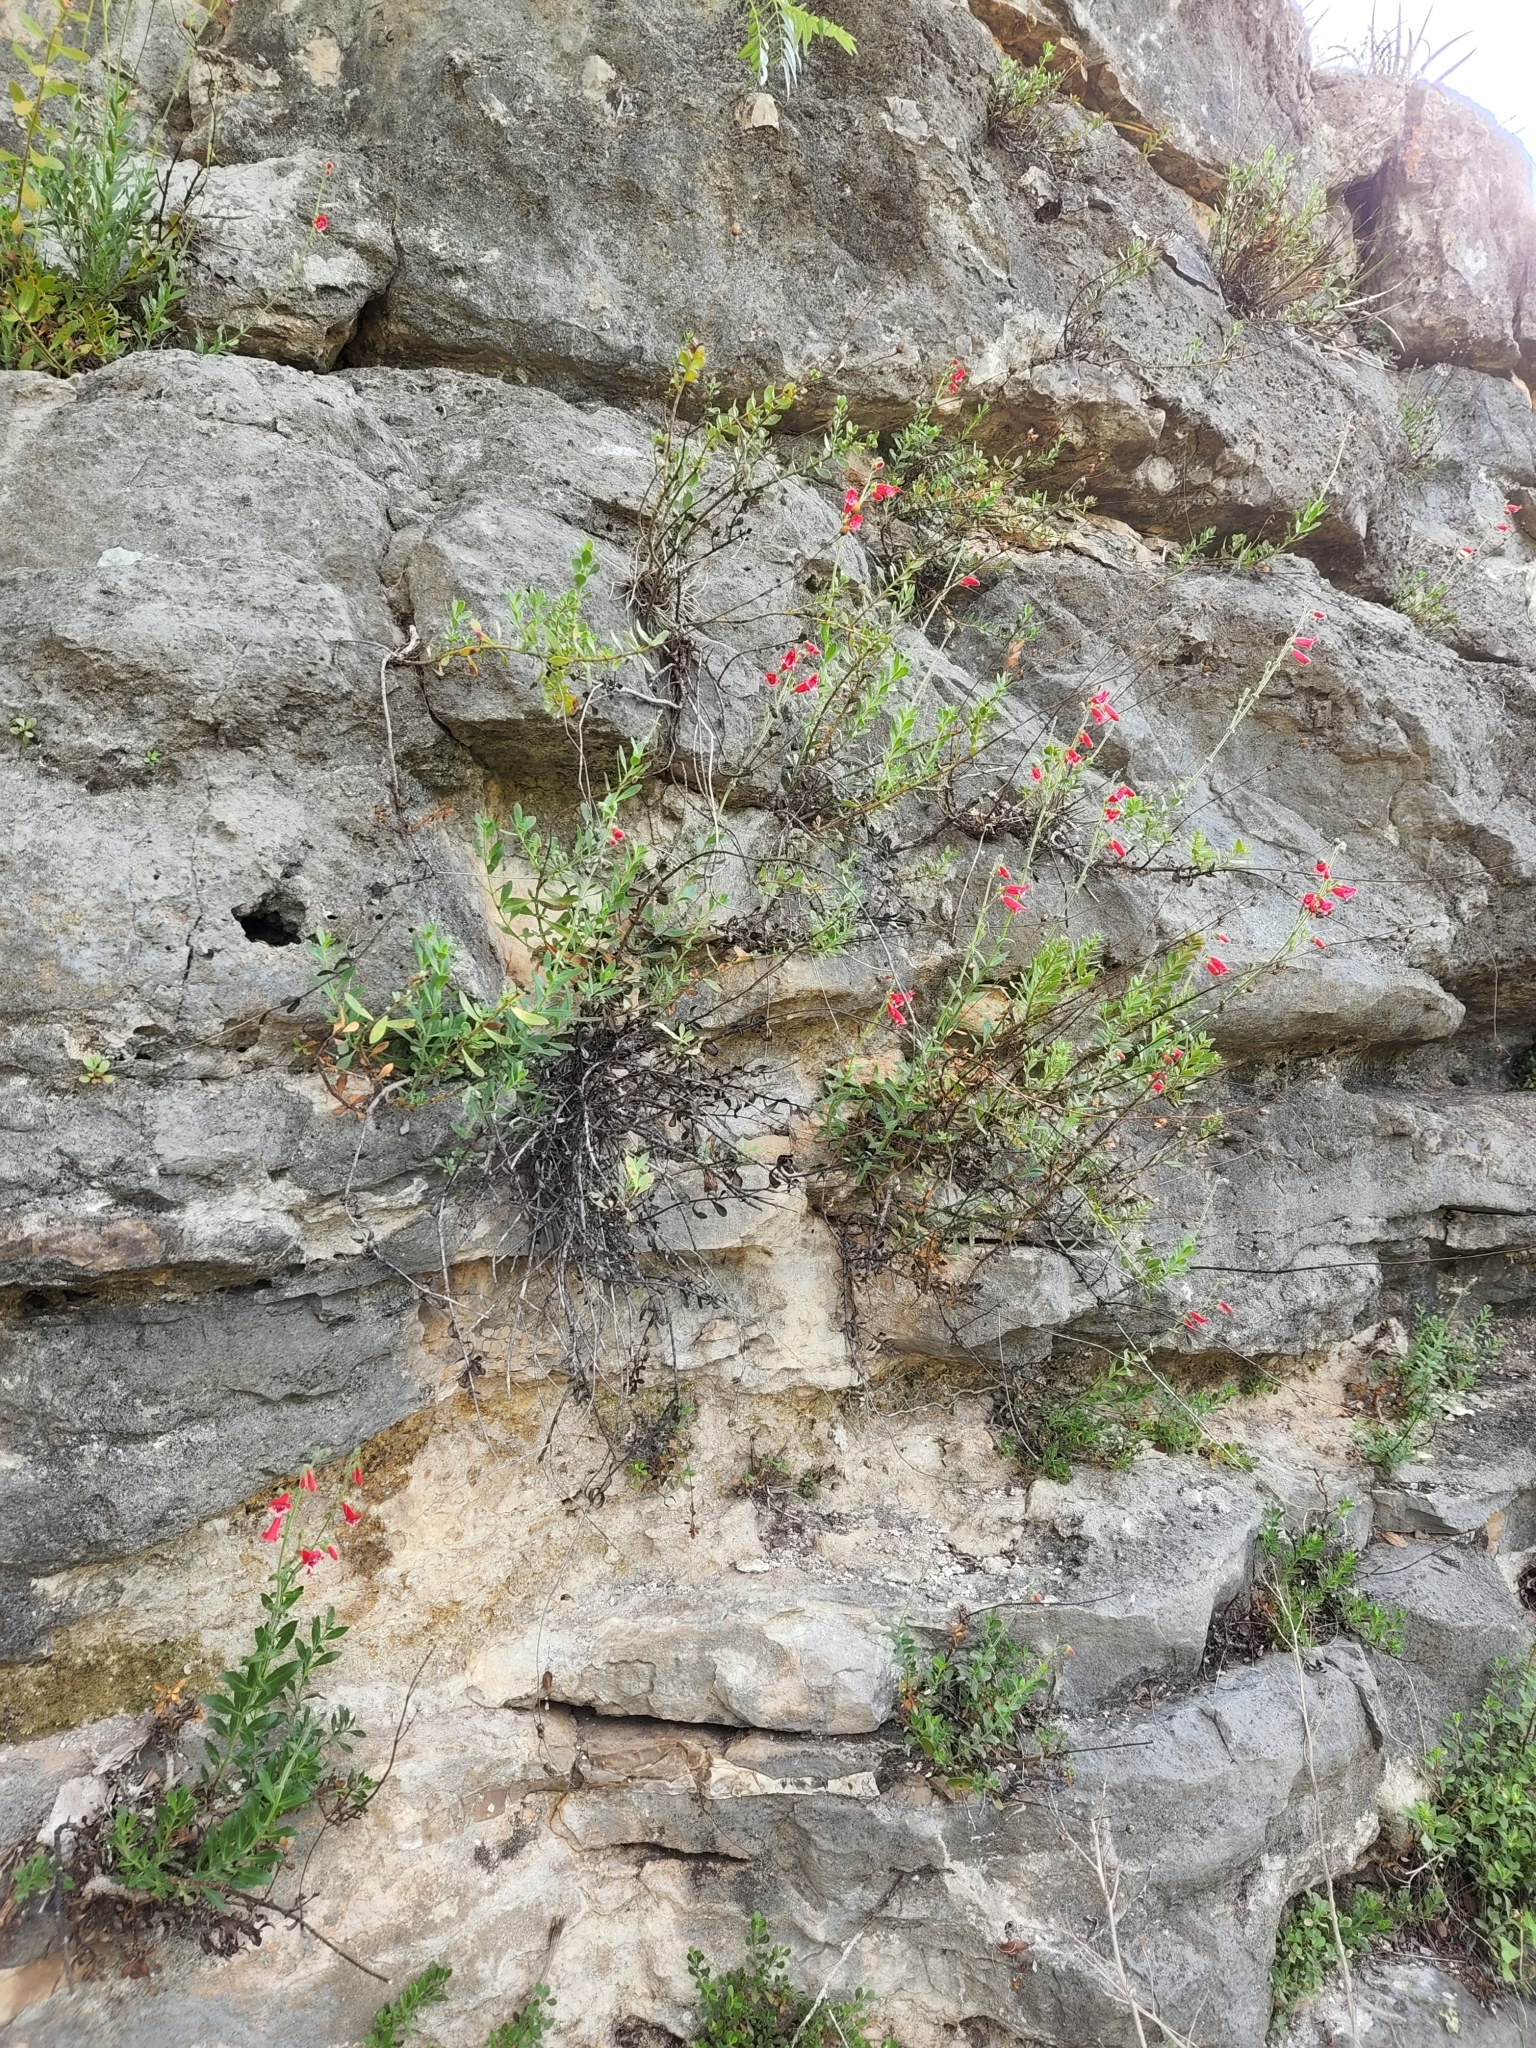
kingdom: Plantae
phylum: Tracheophyta
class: Magnoliopsida
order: Lamiales
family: Plantaginaceae
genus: Penstemon
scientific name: Penstemon baccharifolius
